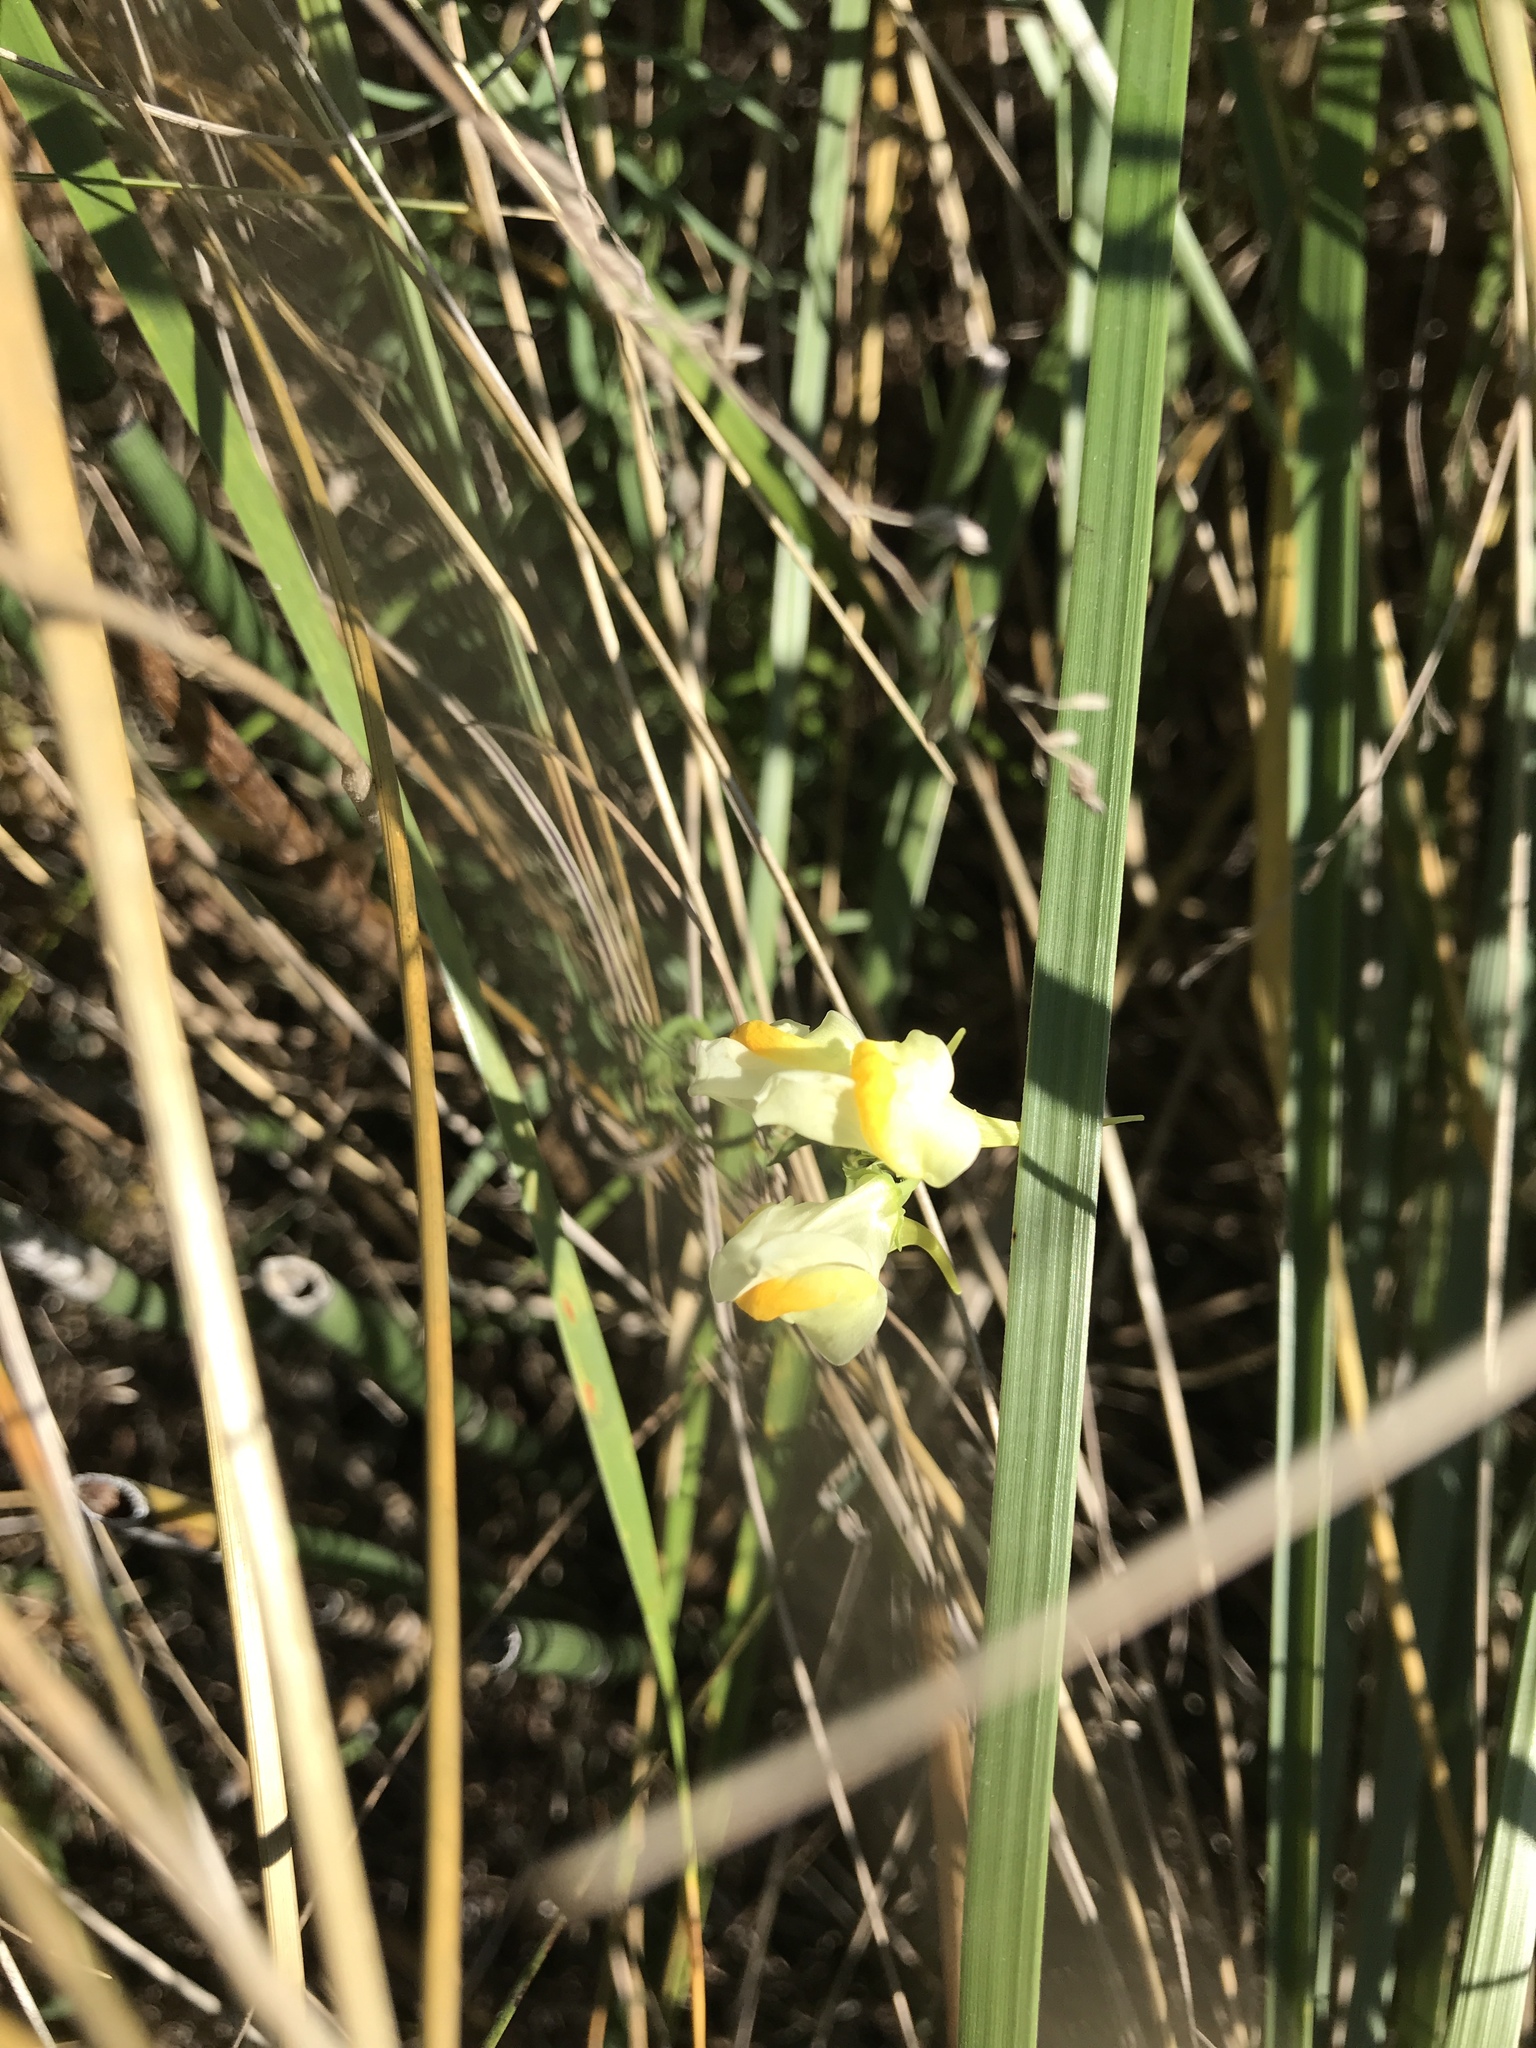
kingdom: Plantae
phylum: Tracheophyta
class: Magnoliopsida
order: Lamiales
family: Plantaginaceae
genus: Linaria
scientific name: Linaria vulgaris
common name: Butter and eggs
